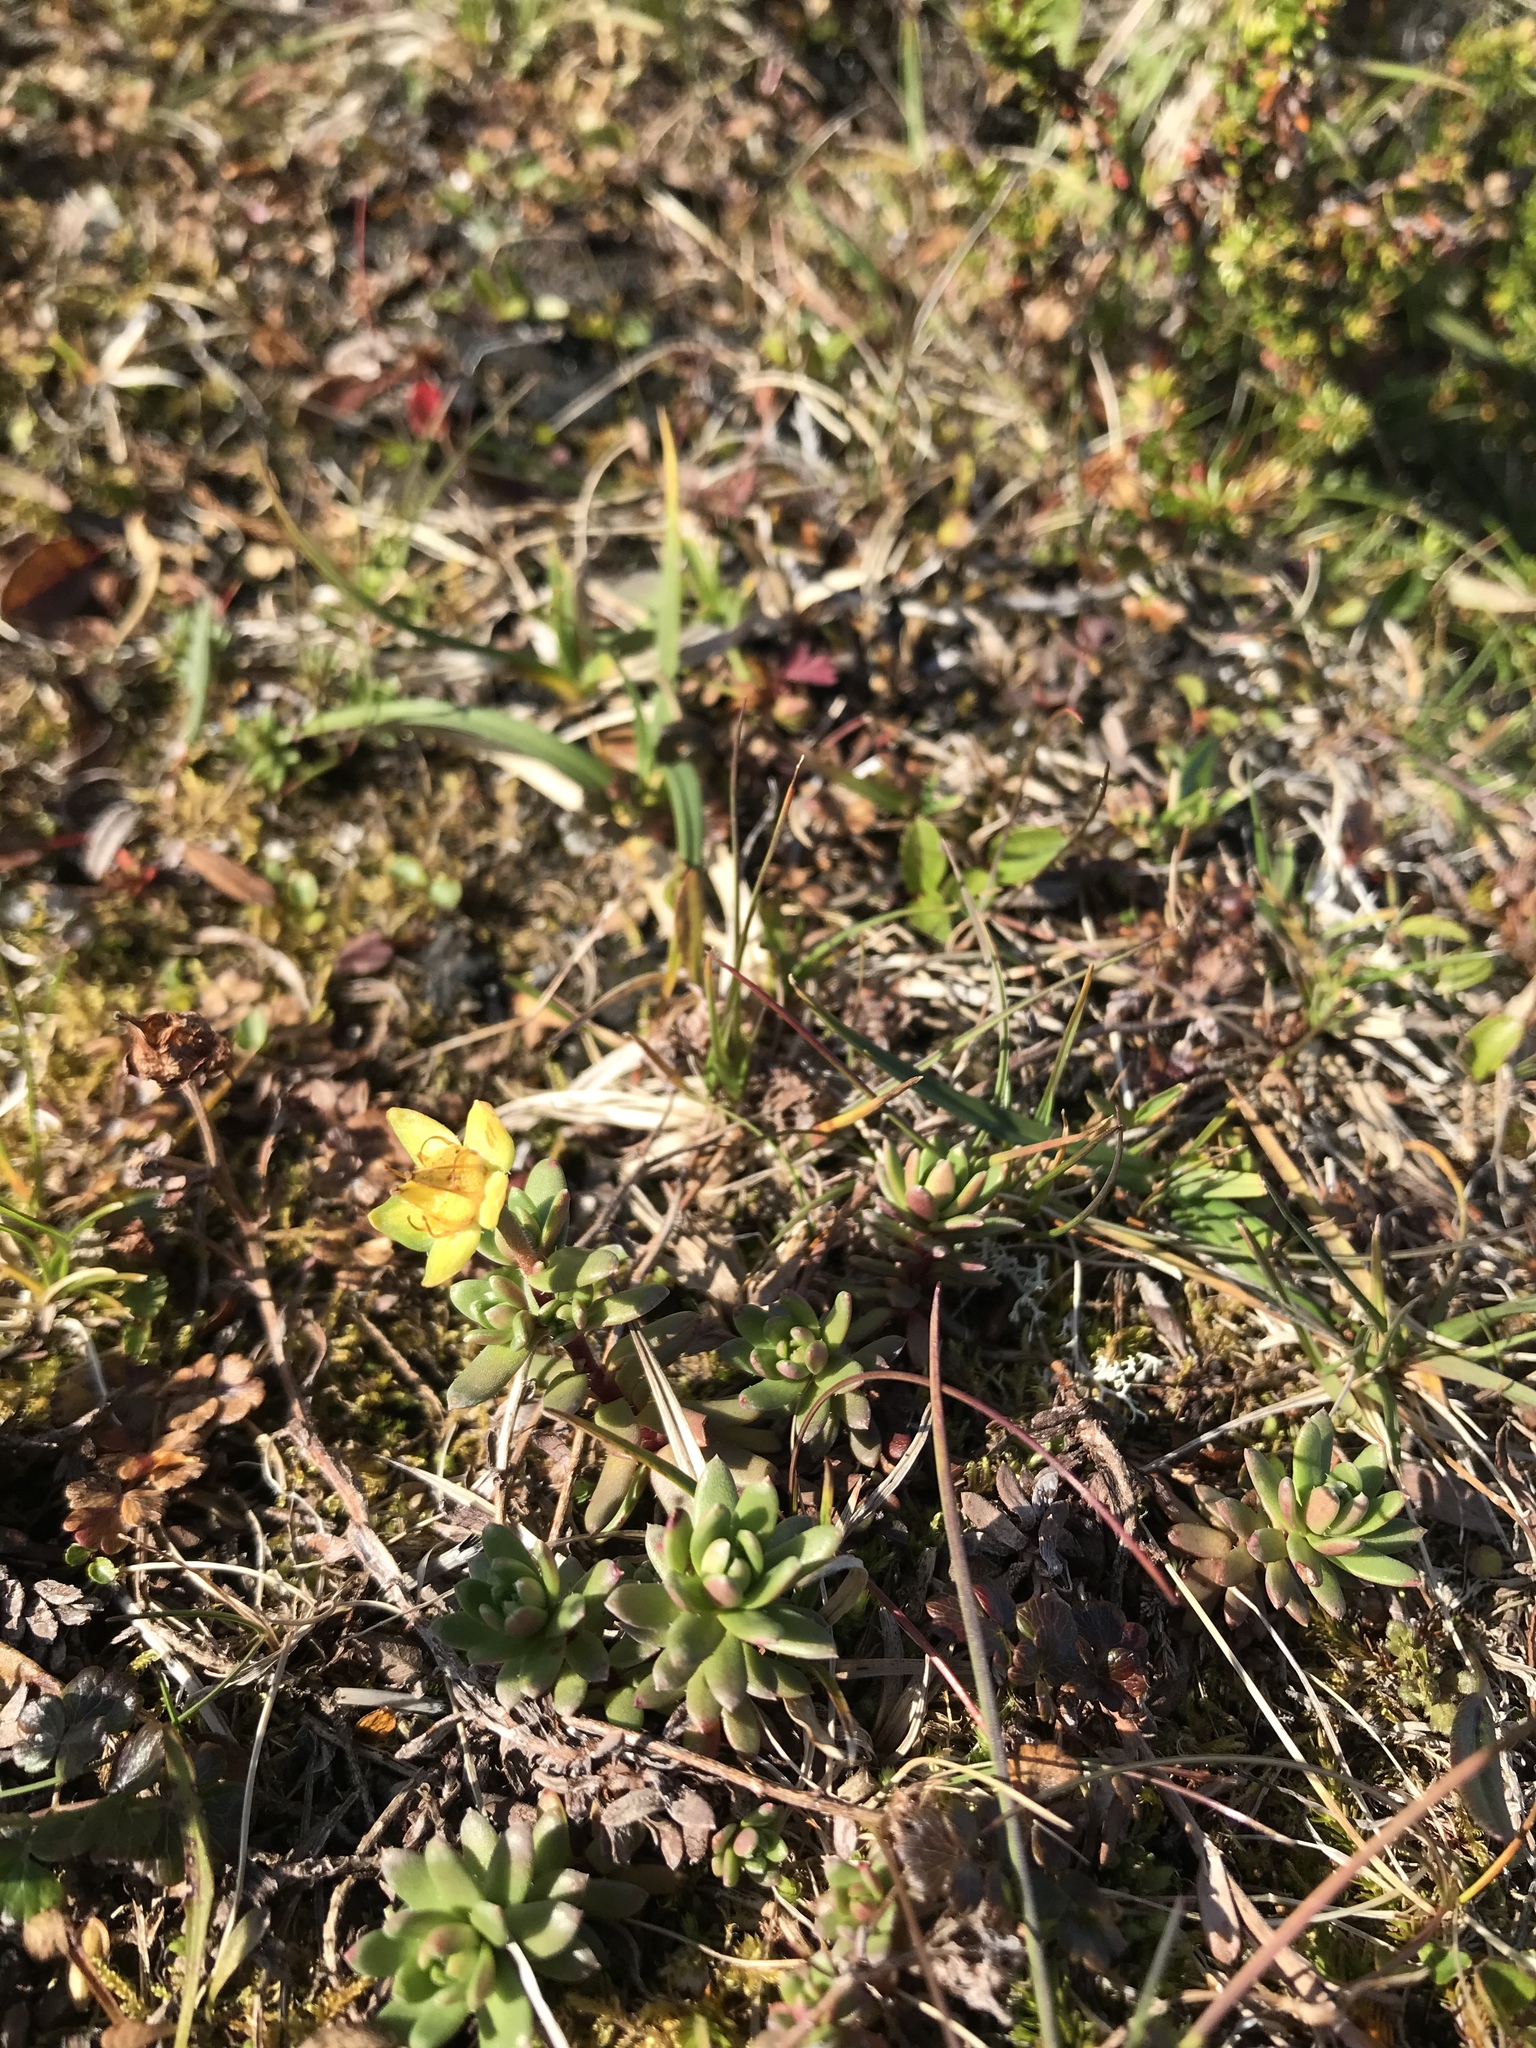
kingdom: Plantae
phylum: Tracheophyta
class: Magnoliopsida
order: Saxifragales
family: Saxifragaceae
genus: Saxifraga
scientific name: Saxifraga aizoides
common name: Yellow mountain saxifrage
